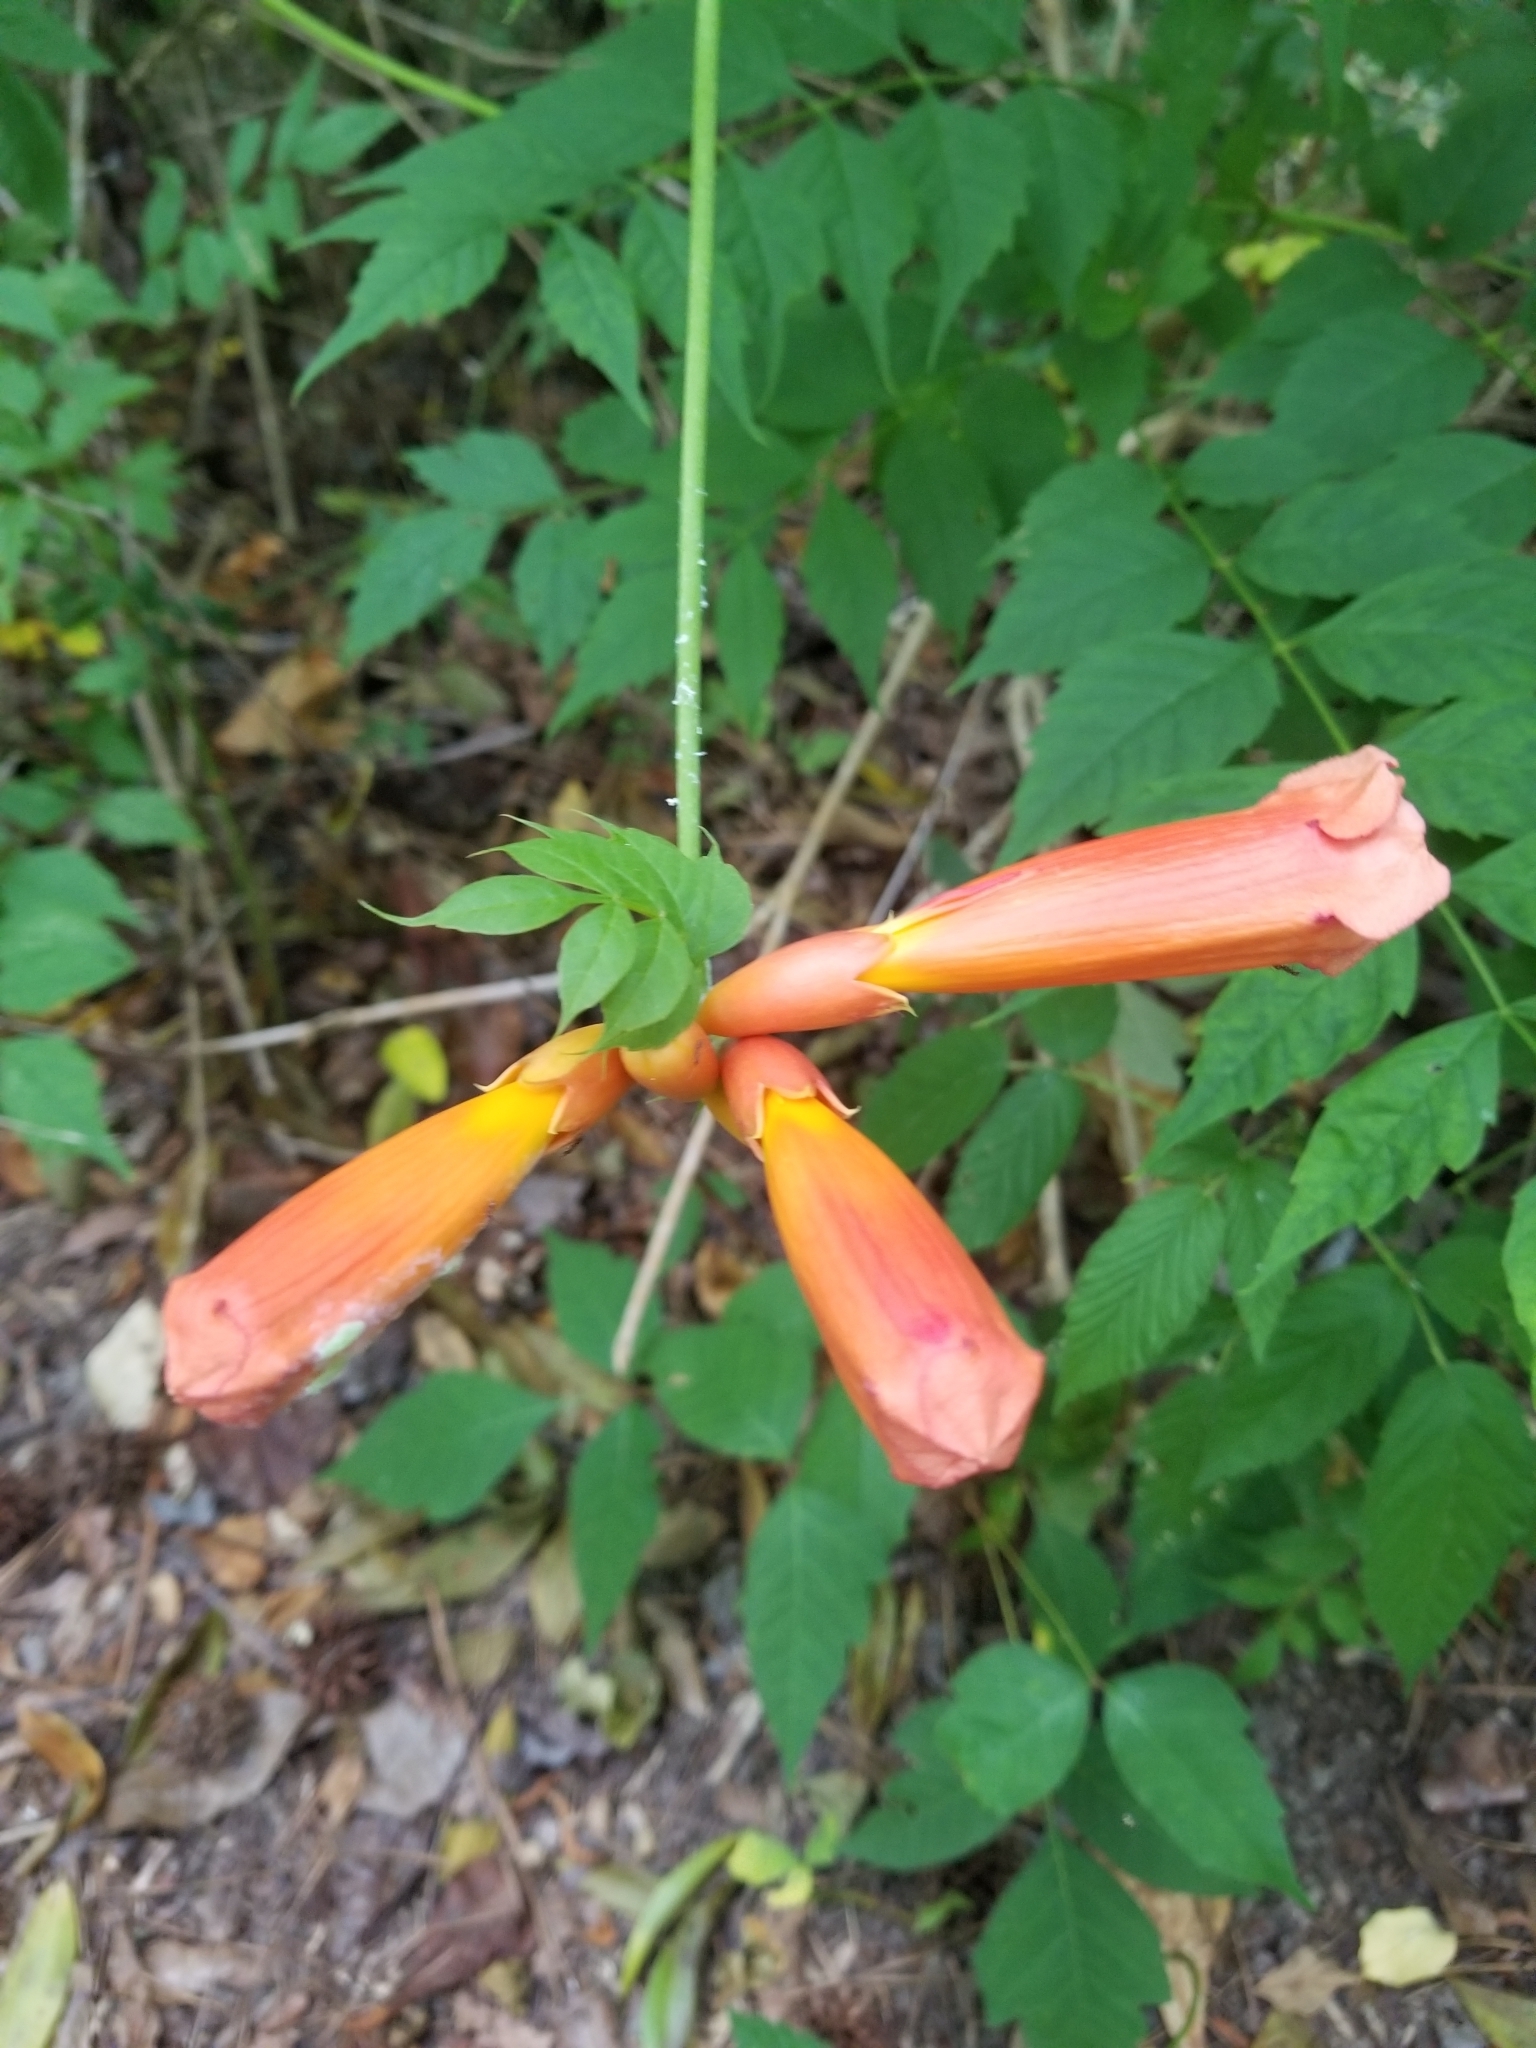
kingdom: Plantae
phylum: Tracheophyta
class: Magnoliopsida
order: Lamiales
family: Bignoniaceae
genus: Campsis
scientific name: Campsis radicans
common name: Trumpet-creeper
